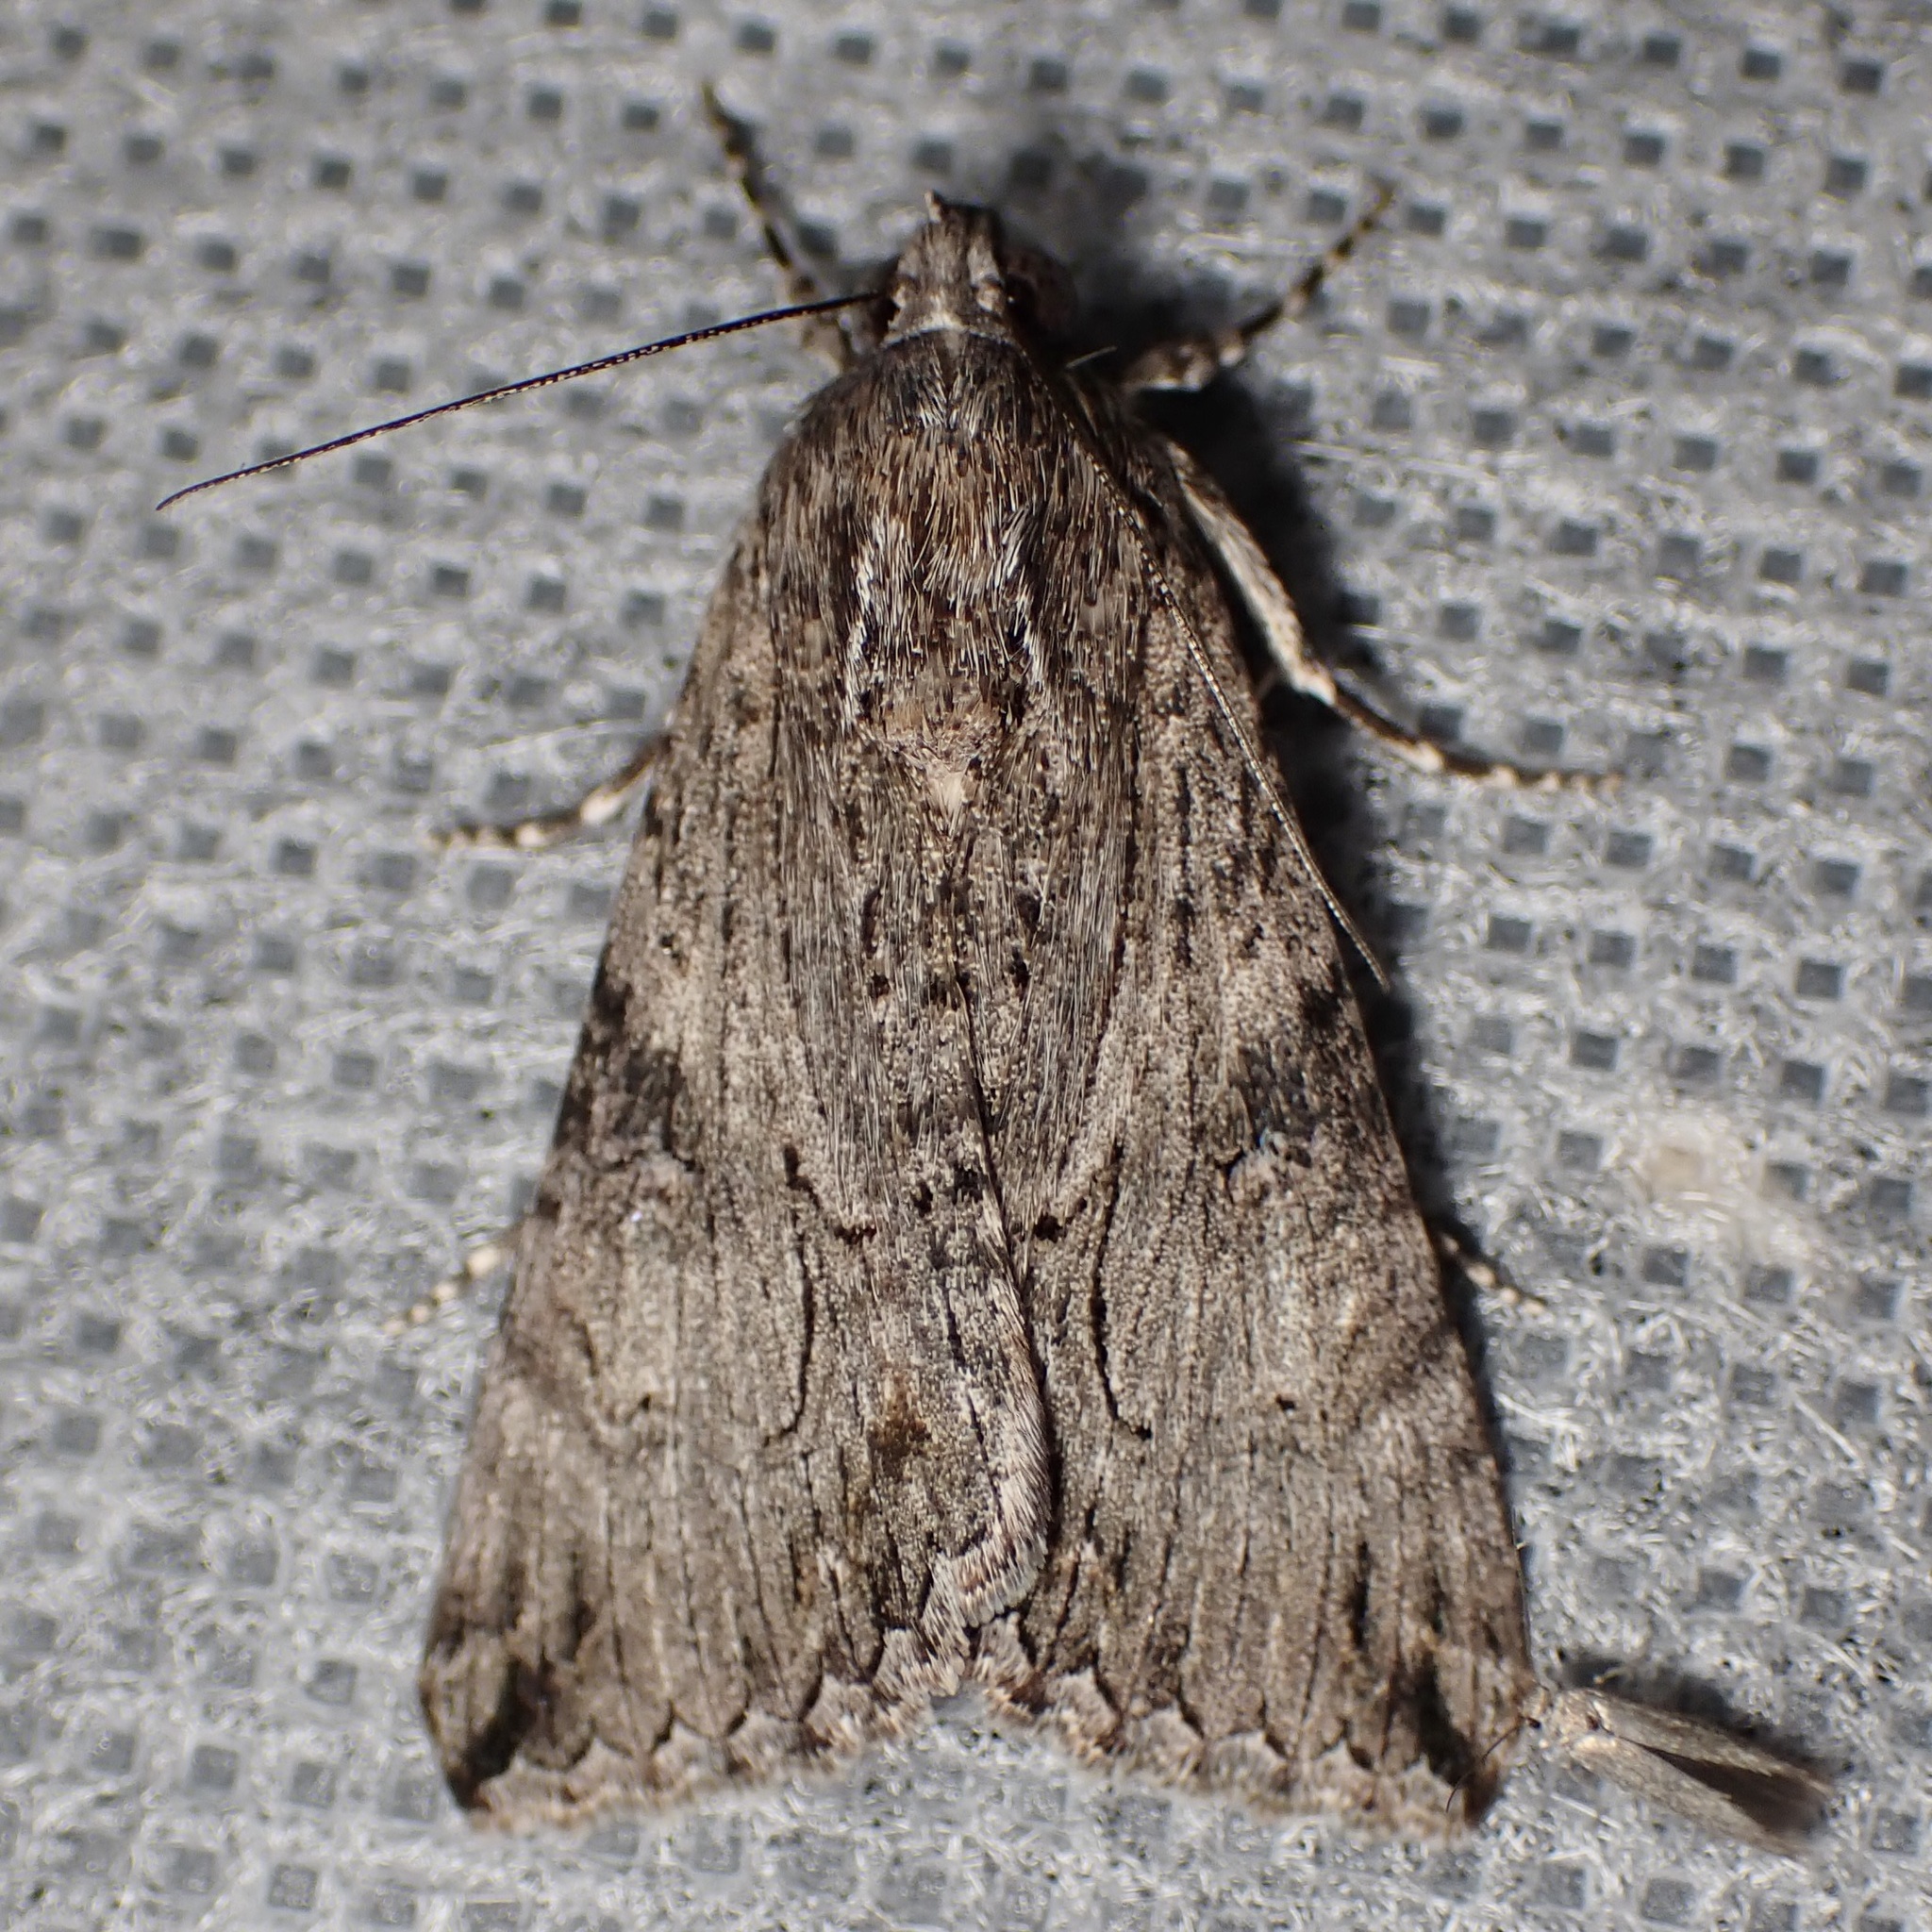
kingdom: Animalia
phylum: Arthropoda
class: Insecta
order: Lepidoptera
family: Erebidae
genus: Melipotis
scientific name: Melipotis jucunda
